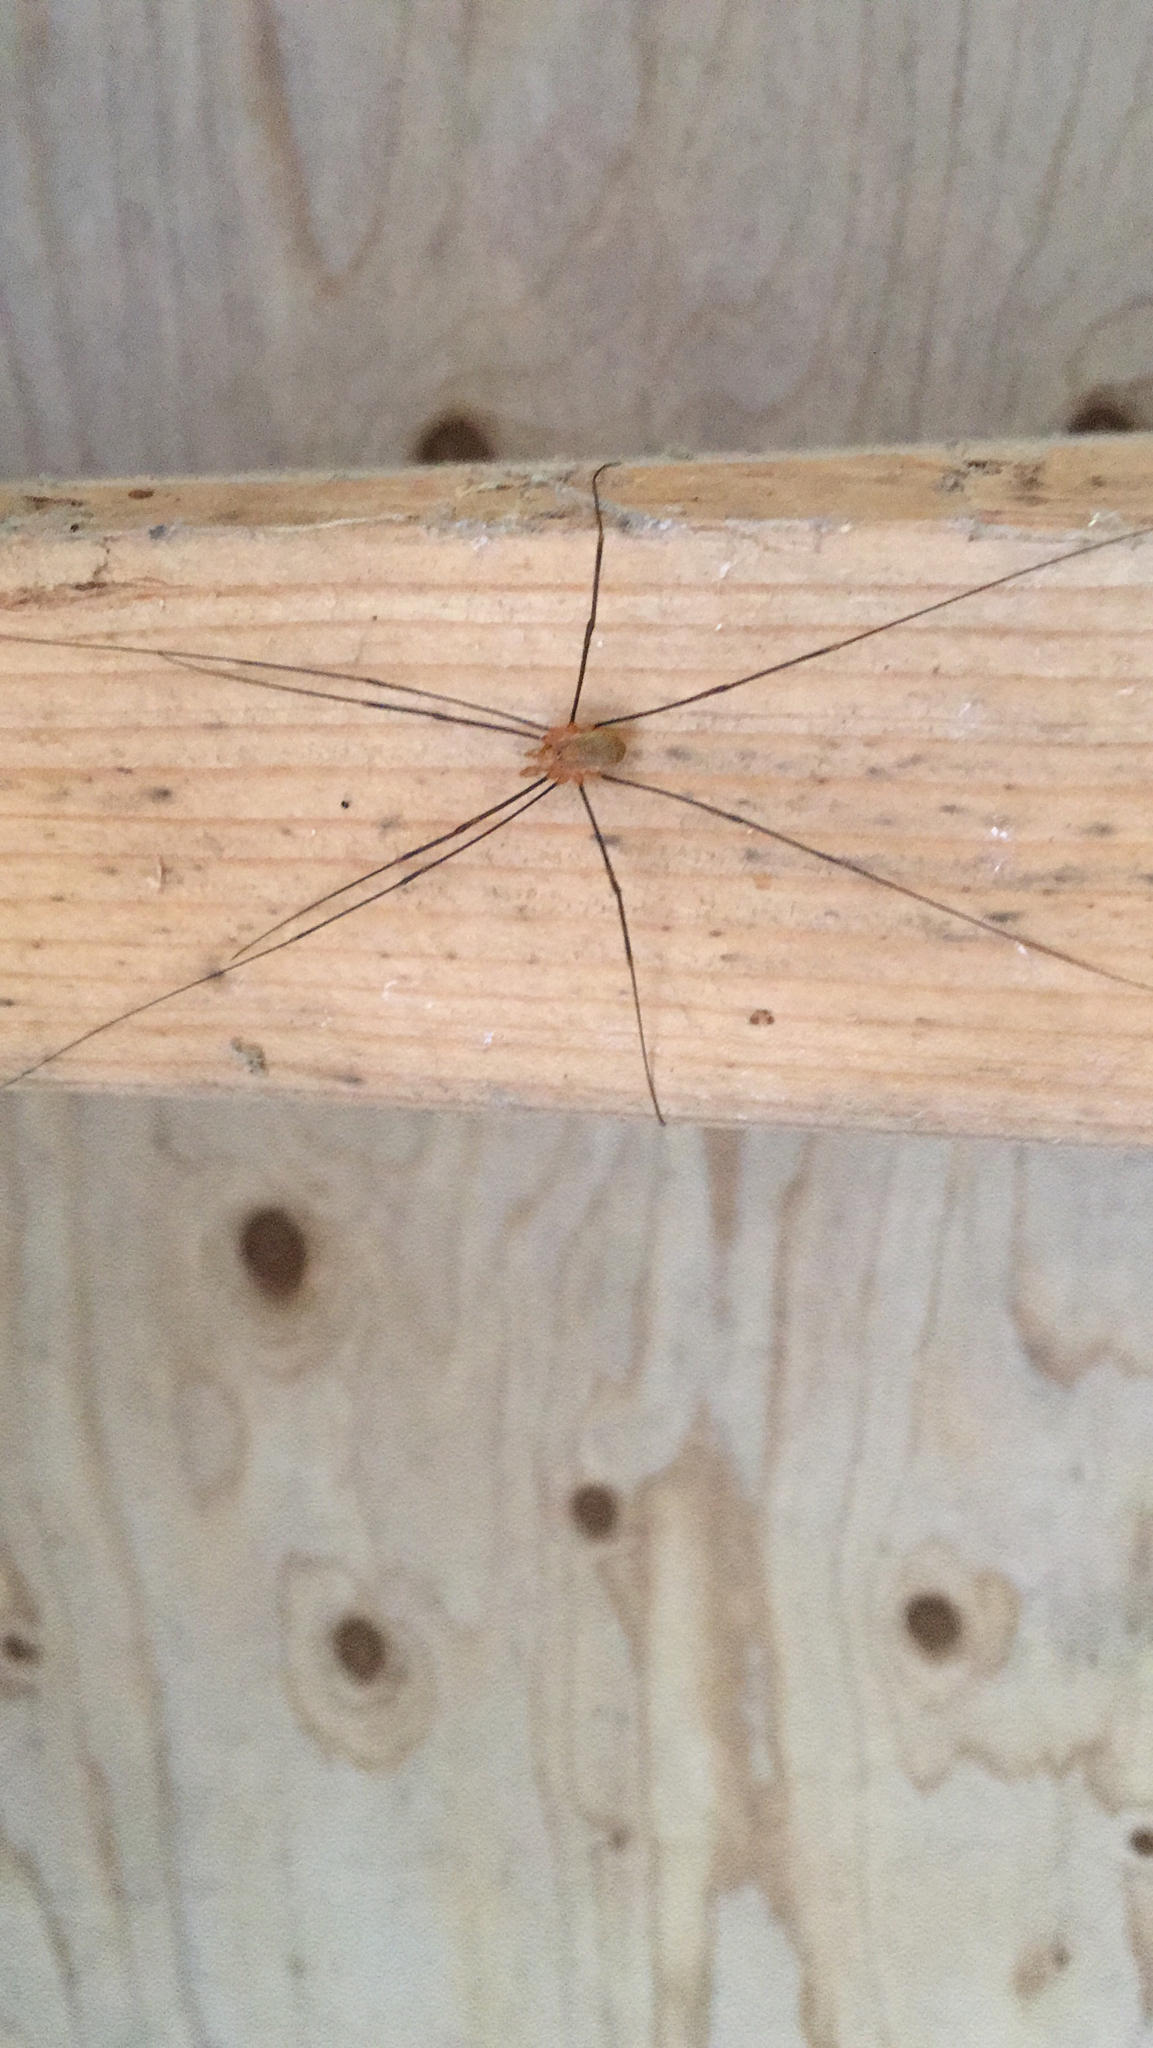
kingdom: Animalia
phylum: Arthropoda
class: Arachnida
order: Opiliones
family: Phalangiidae
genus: Opilio
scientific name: Opilio canestrinii
